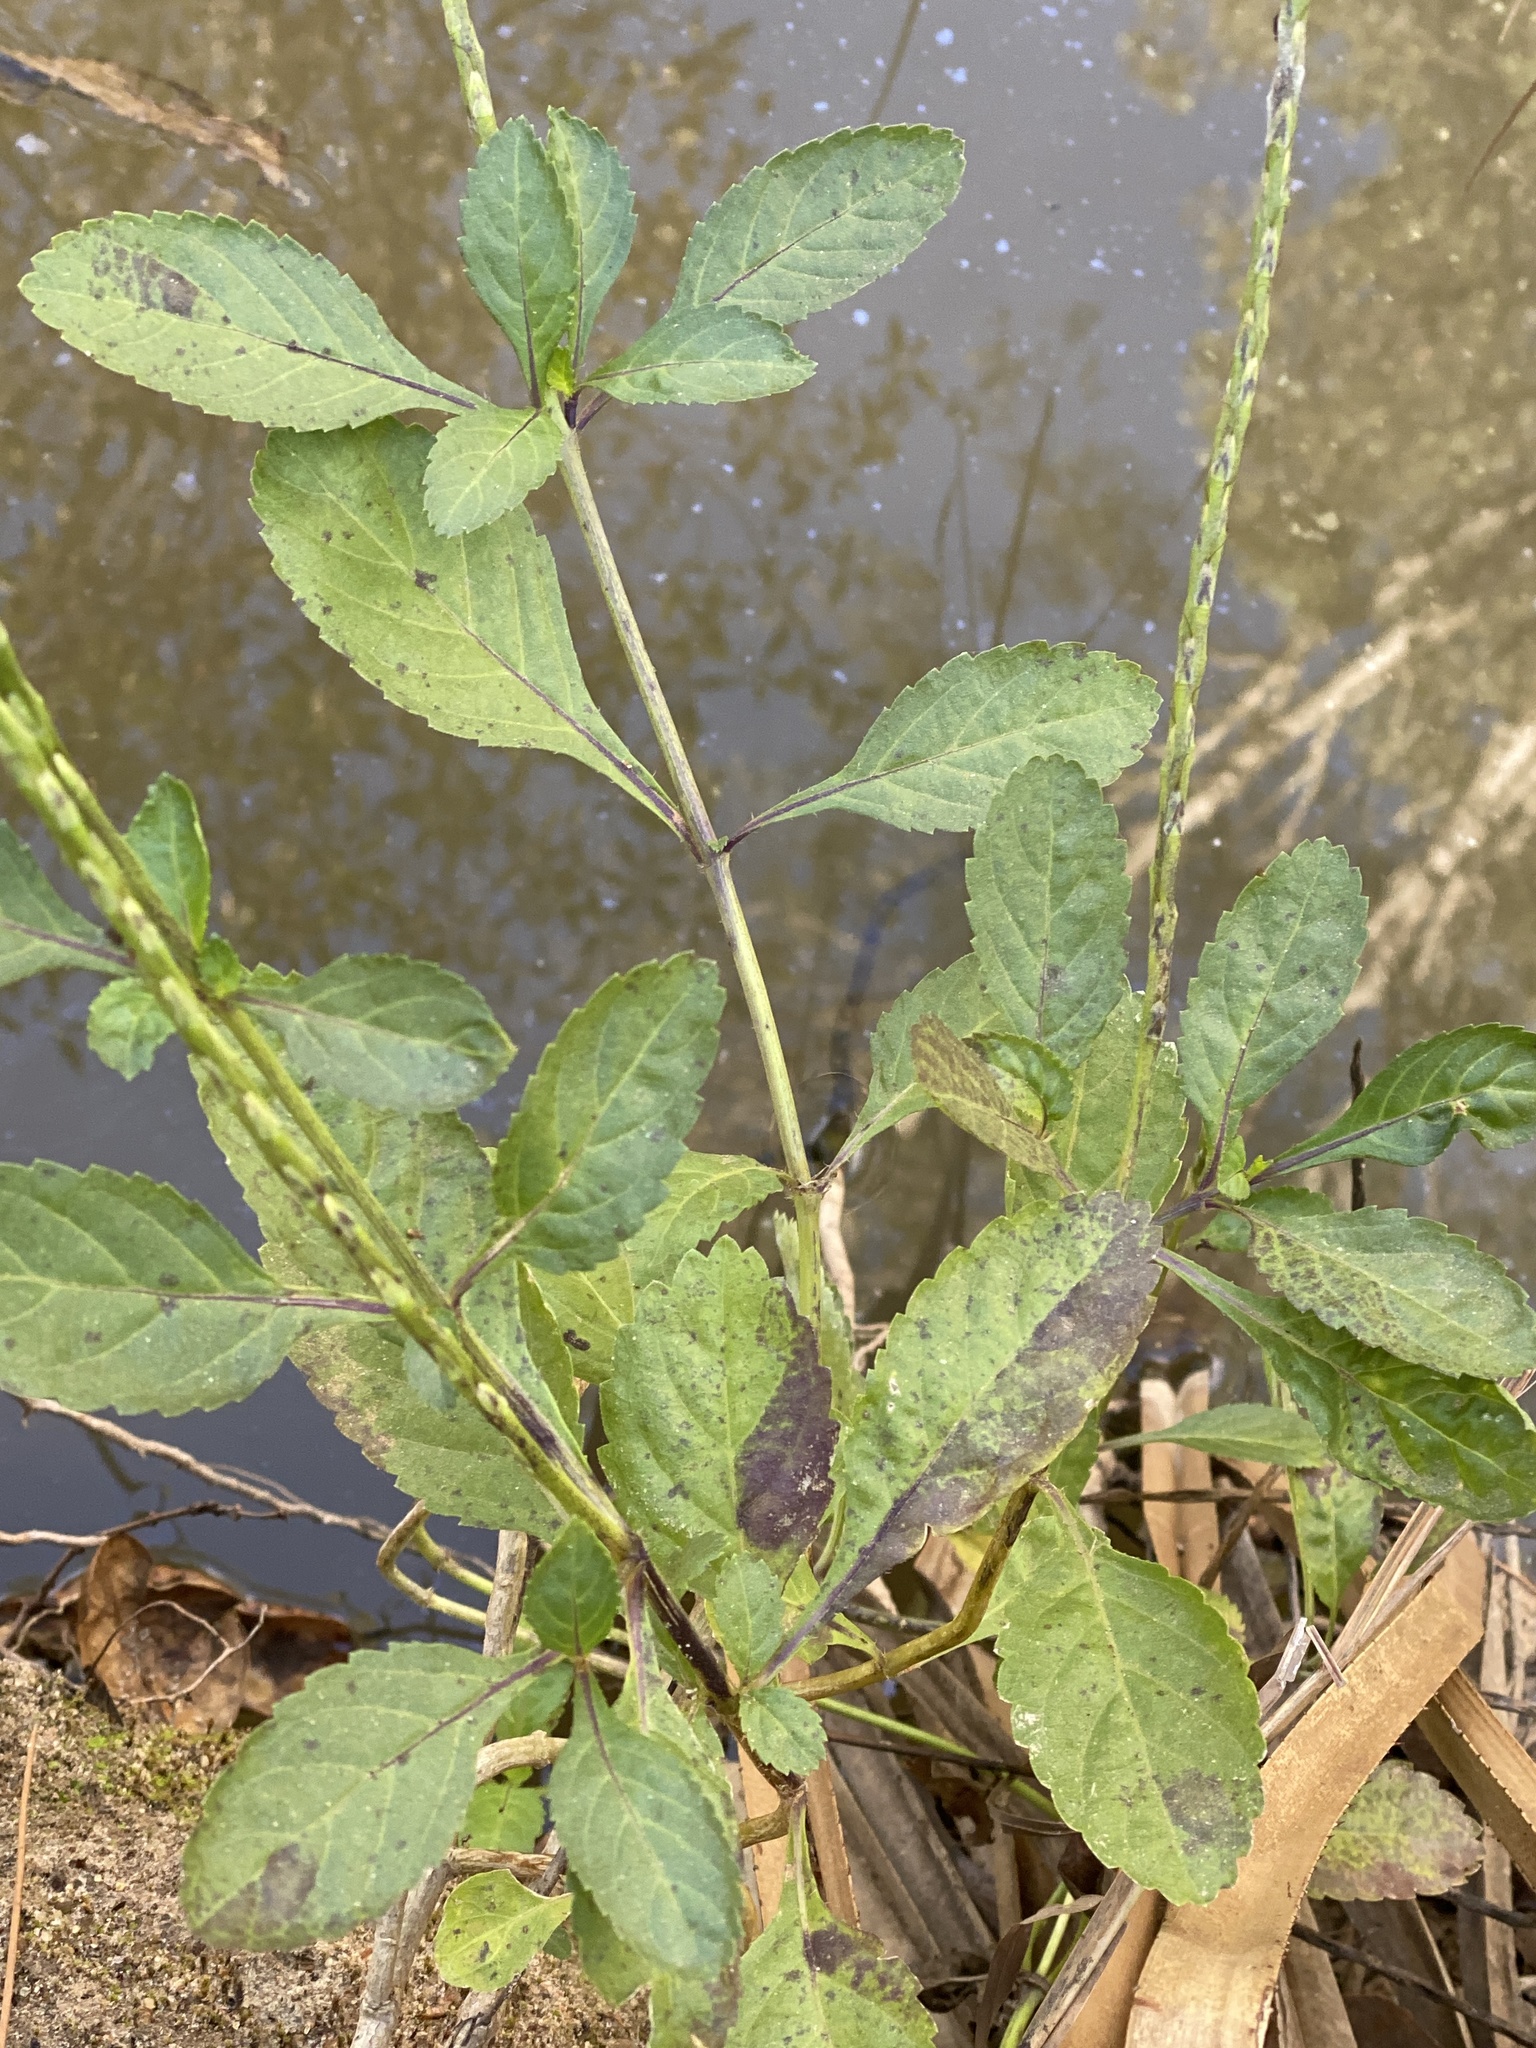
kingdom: Plantae
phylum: Tracheophyta
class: Magnoliopsida
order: Lamiales
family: Verbenaceae
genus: Stachytarpheta
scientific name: Stachytarpheta jamaicensis
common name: Light-blue snakeweed
